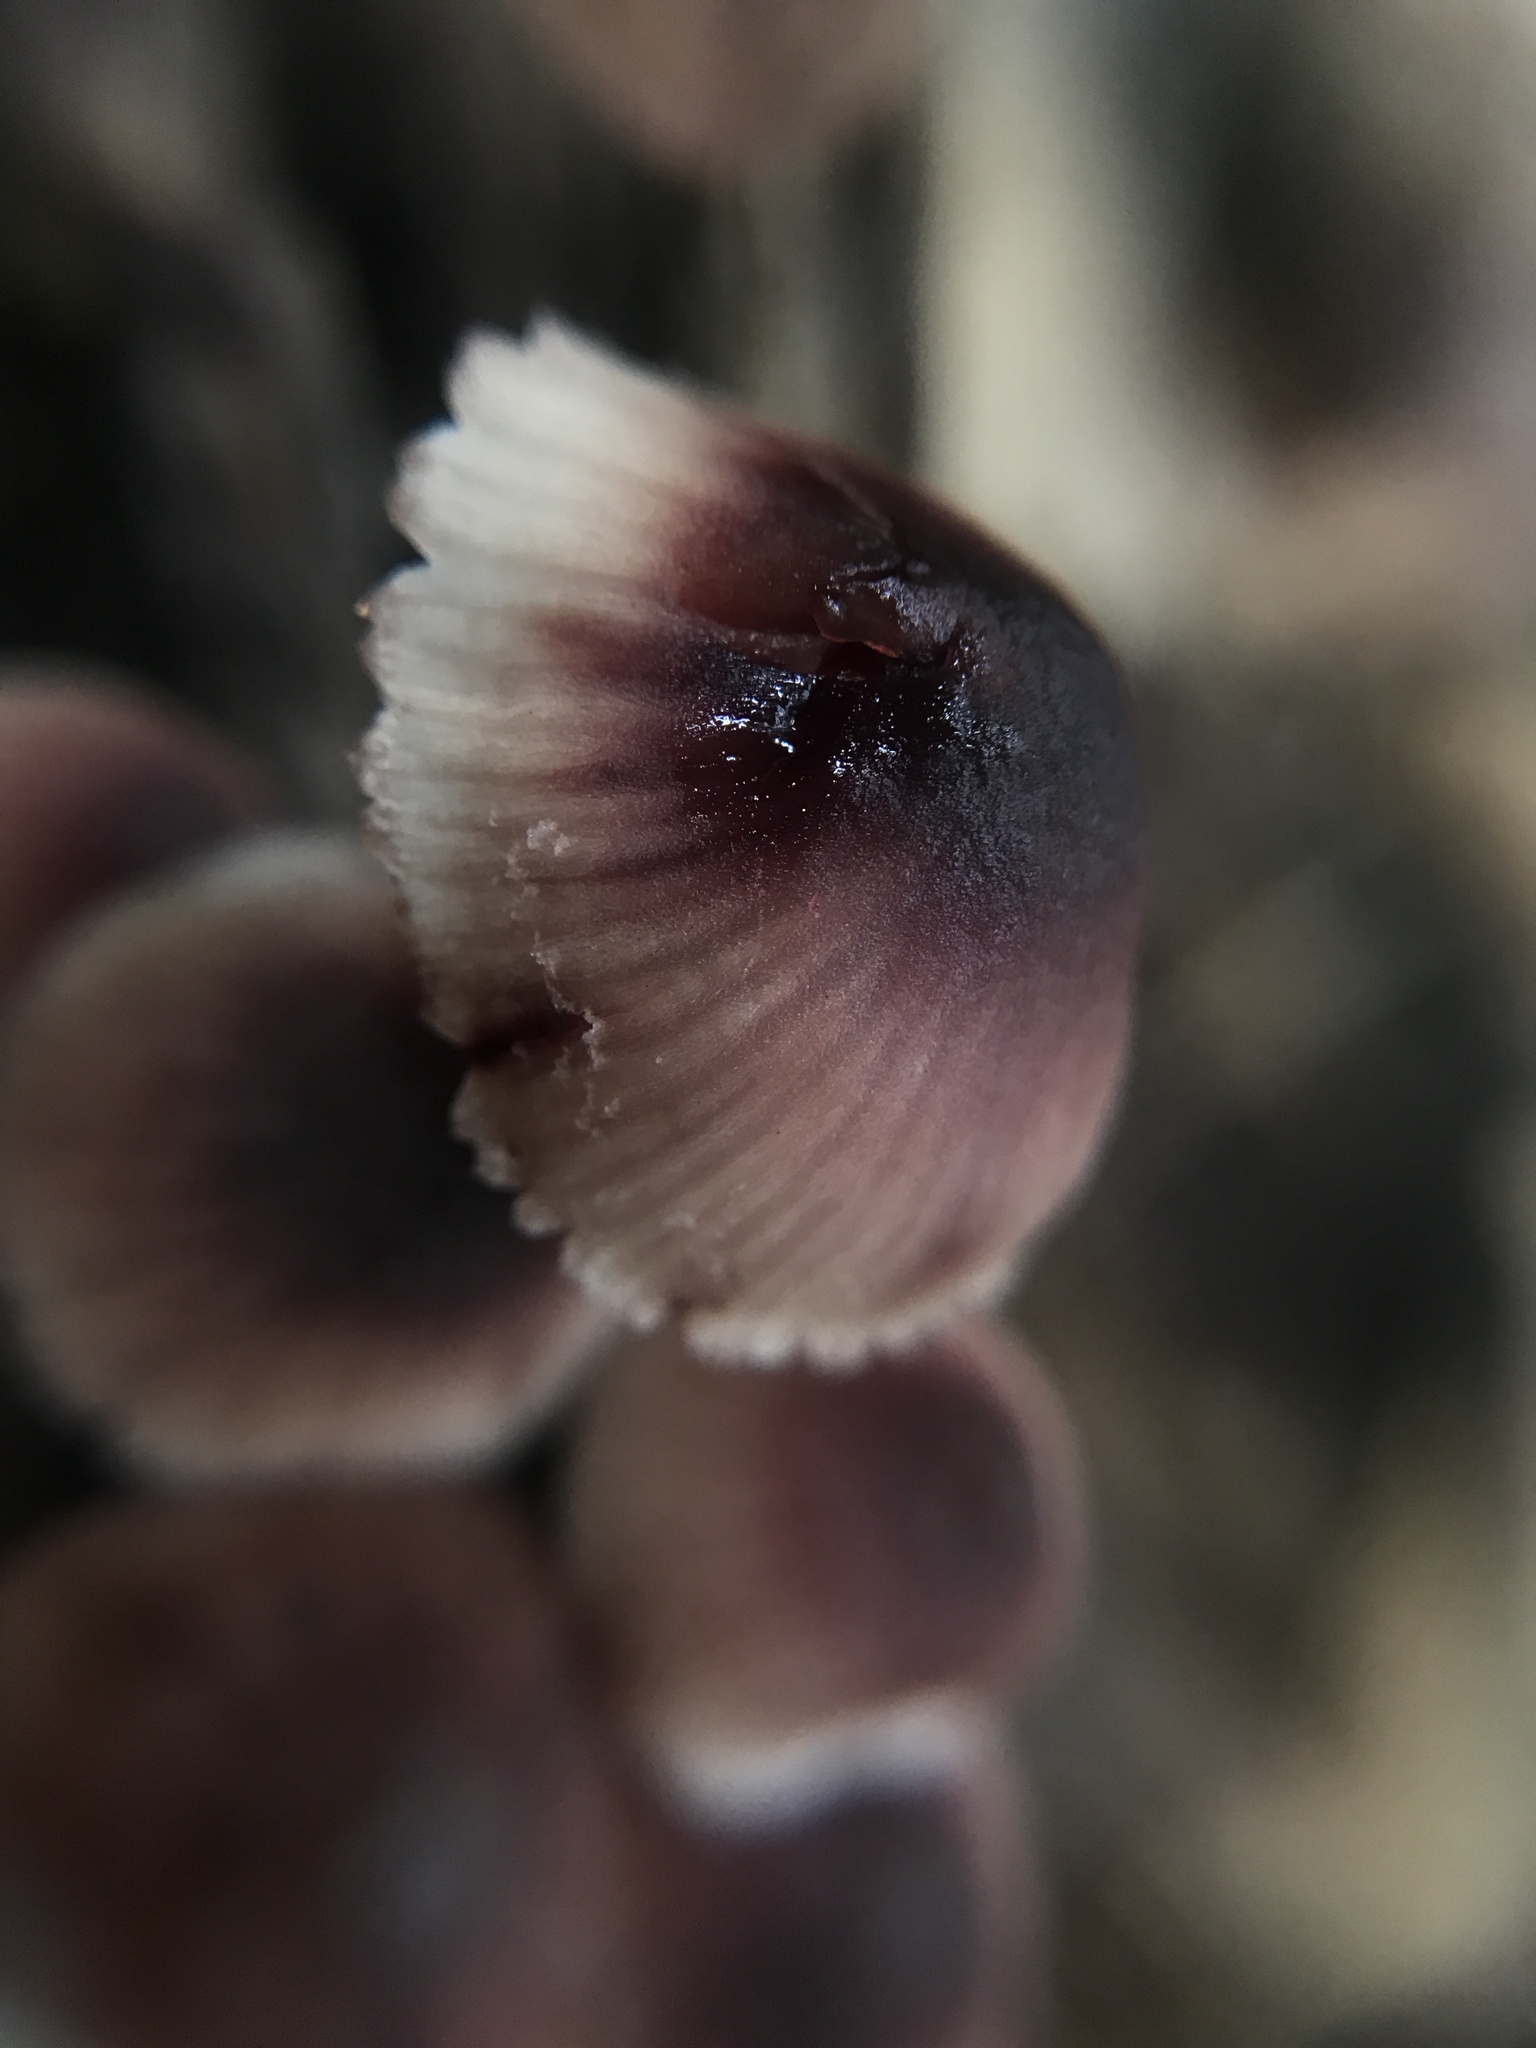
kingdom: Fungi
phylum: Basidiomycota
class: Agaricomycetes
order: Agaricales
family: Mycenaceae
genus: Mycena
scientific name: Mycena haematopus
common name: Burgundydrop bonnet
